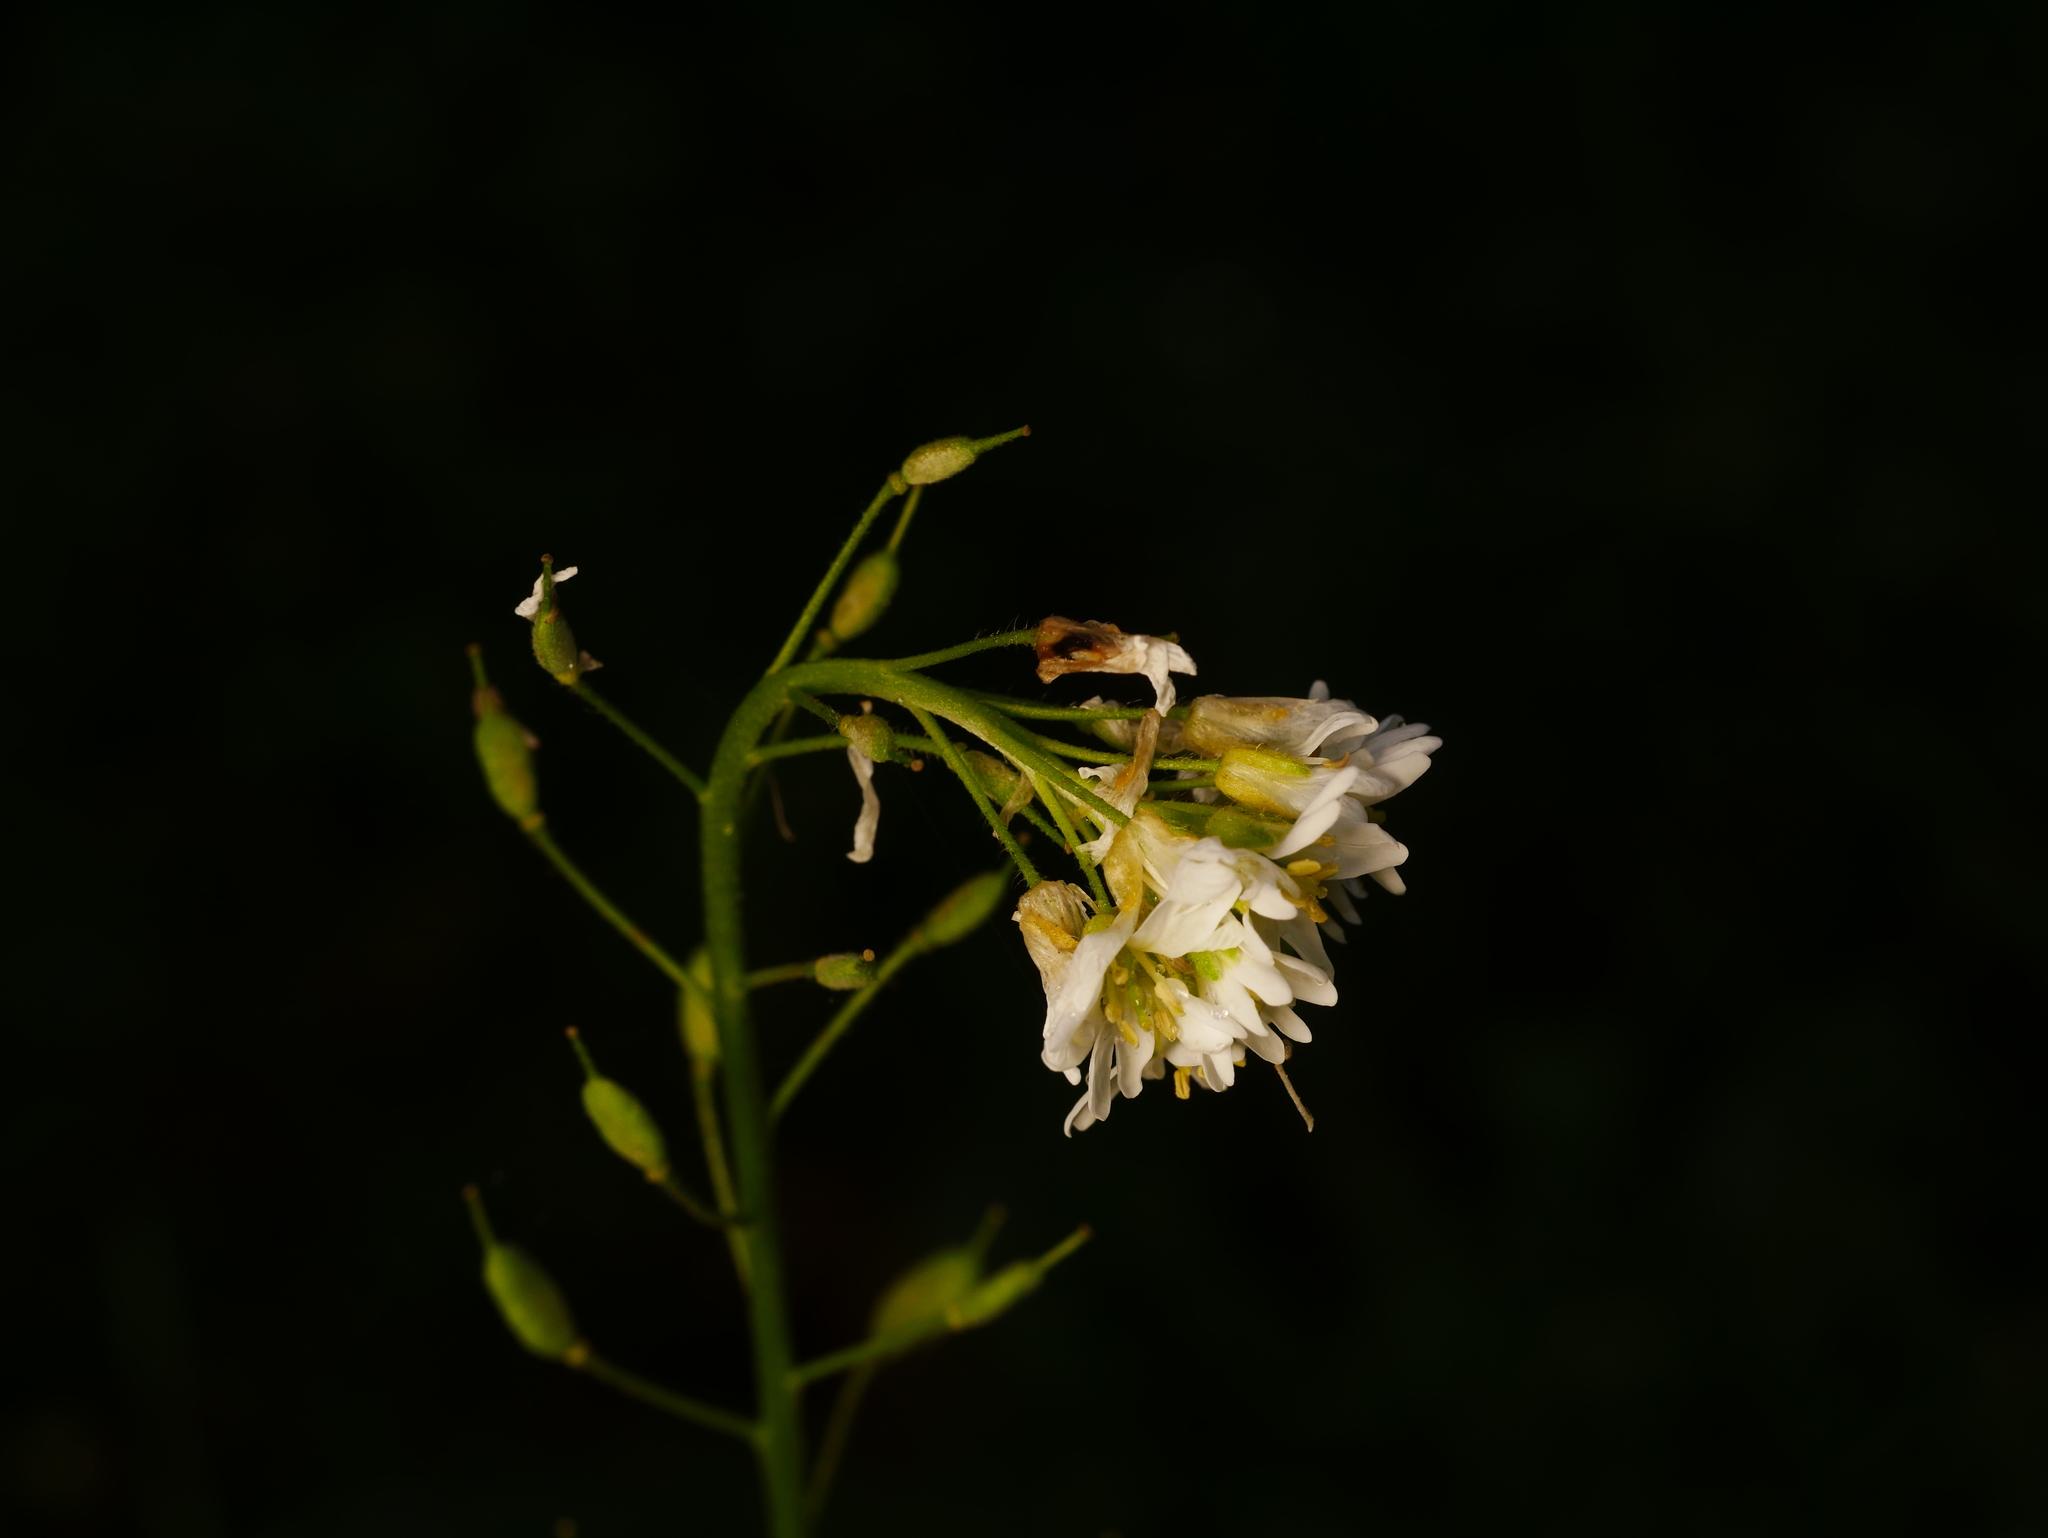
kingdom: Plantae
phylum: Tracheophyta
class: Magnoliopsida
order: Brassicales
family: Brassicaceae
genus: Berteroa
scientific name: Berteroa incana
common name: Hoary alison
